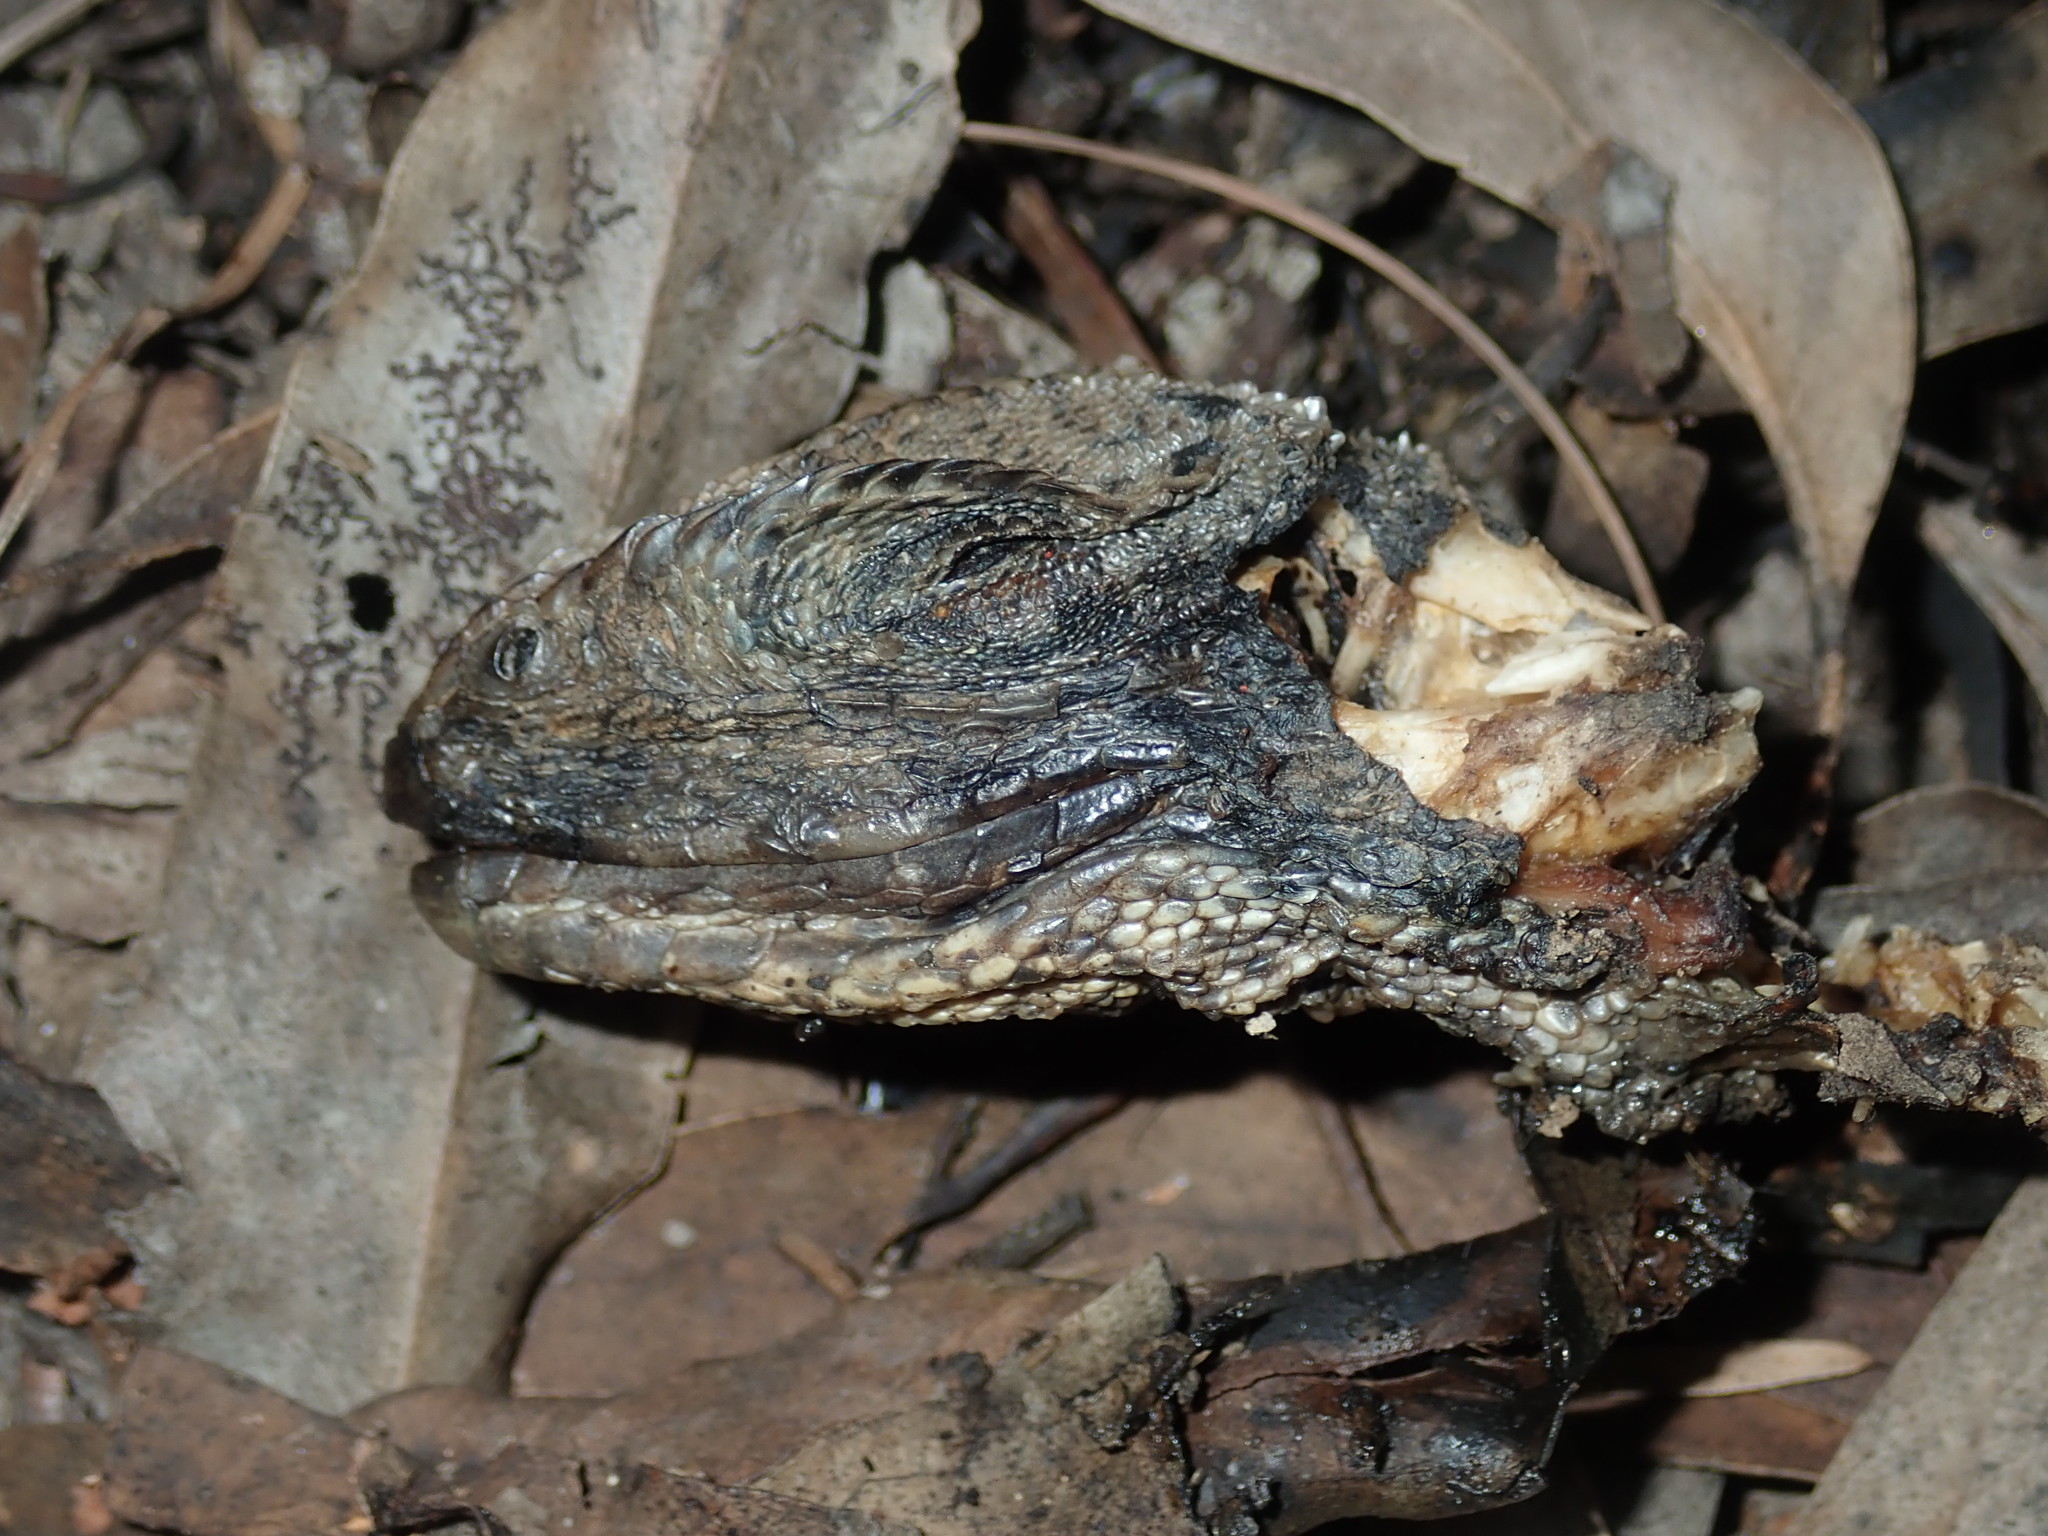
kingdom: Animalia
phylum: Chordata
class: Squamata
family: Agamidae
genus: Intellagama
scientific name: Intellagama lesueurii
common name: Eastern water dragon
